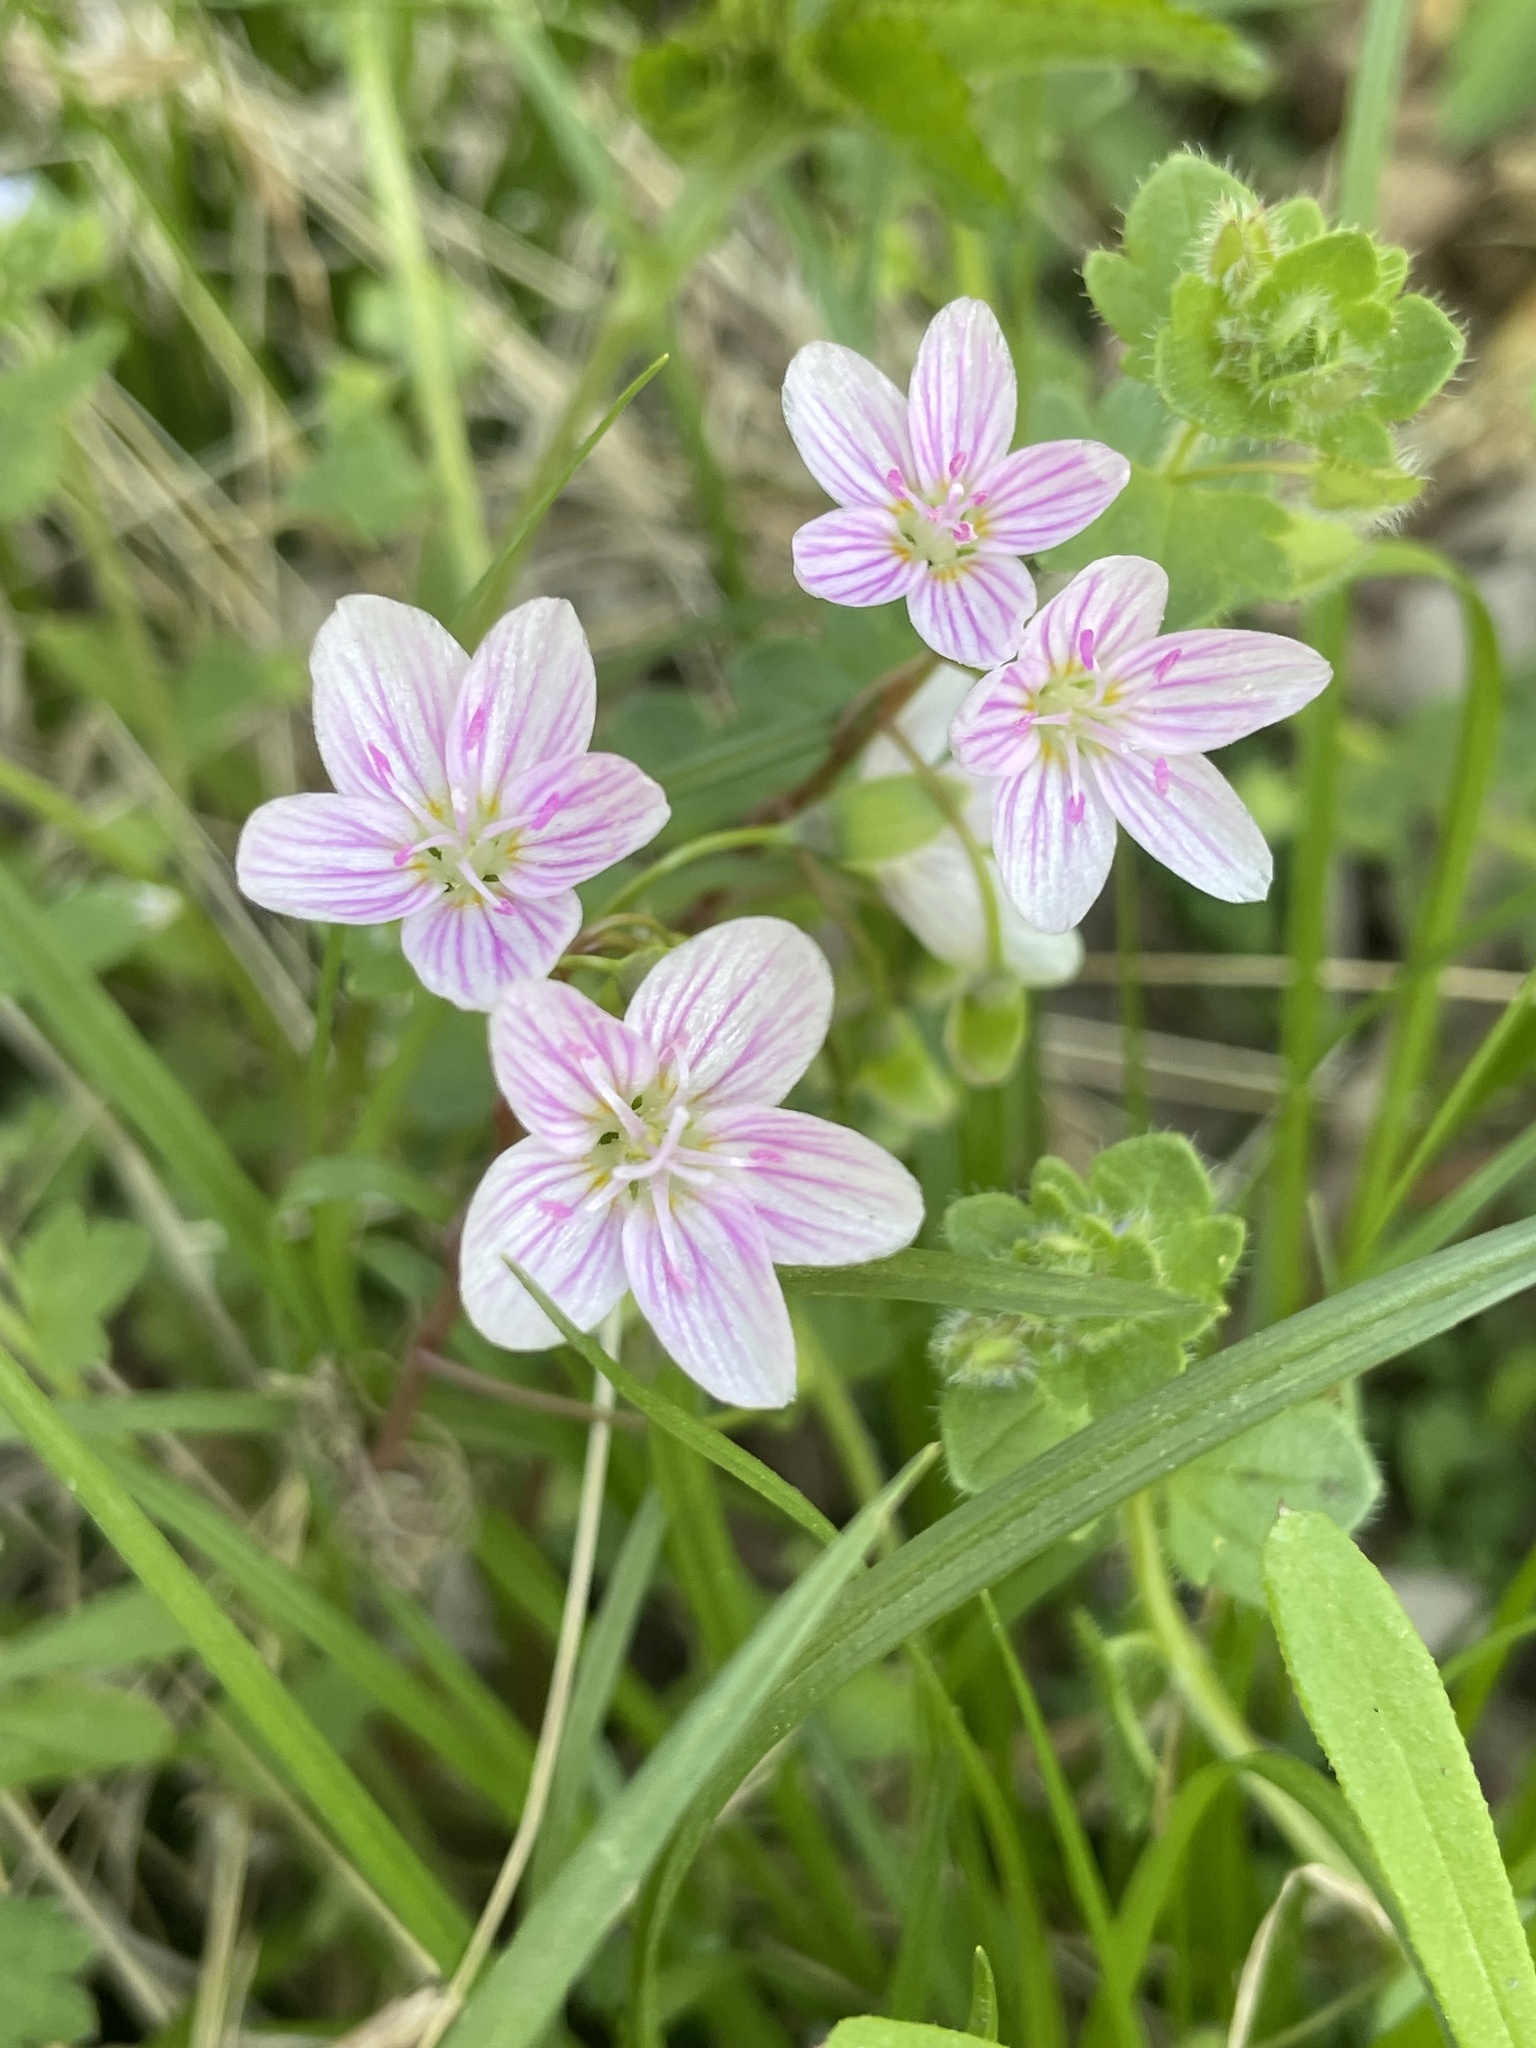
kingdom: Plantae
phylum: Tracheophyta
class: Magnoliopsida
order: Caryophyllales
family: Montiaceae
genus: Claytonia
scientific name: Claytonia virginica
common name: Virginia springbeauty
